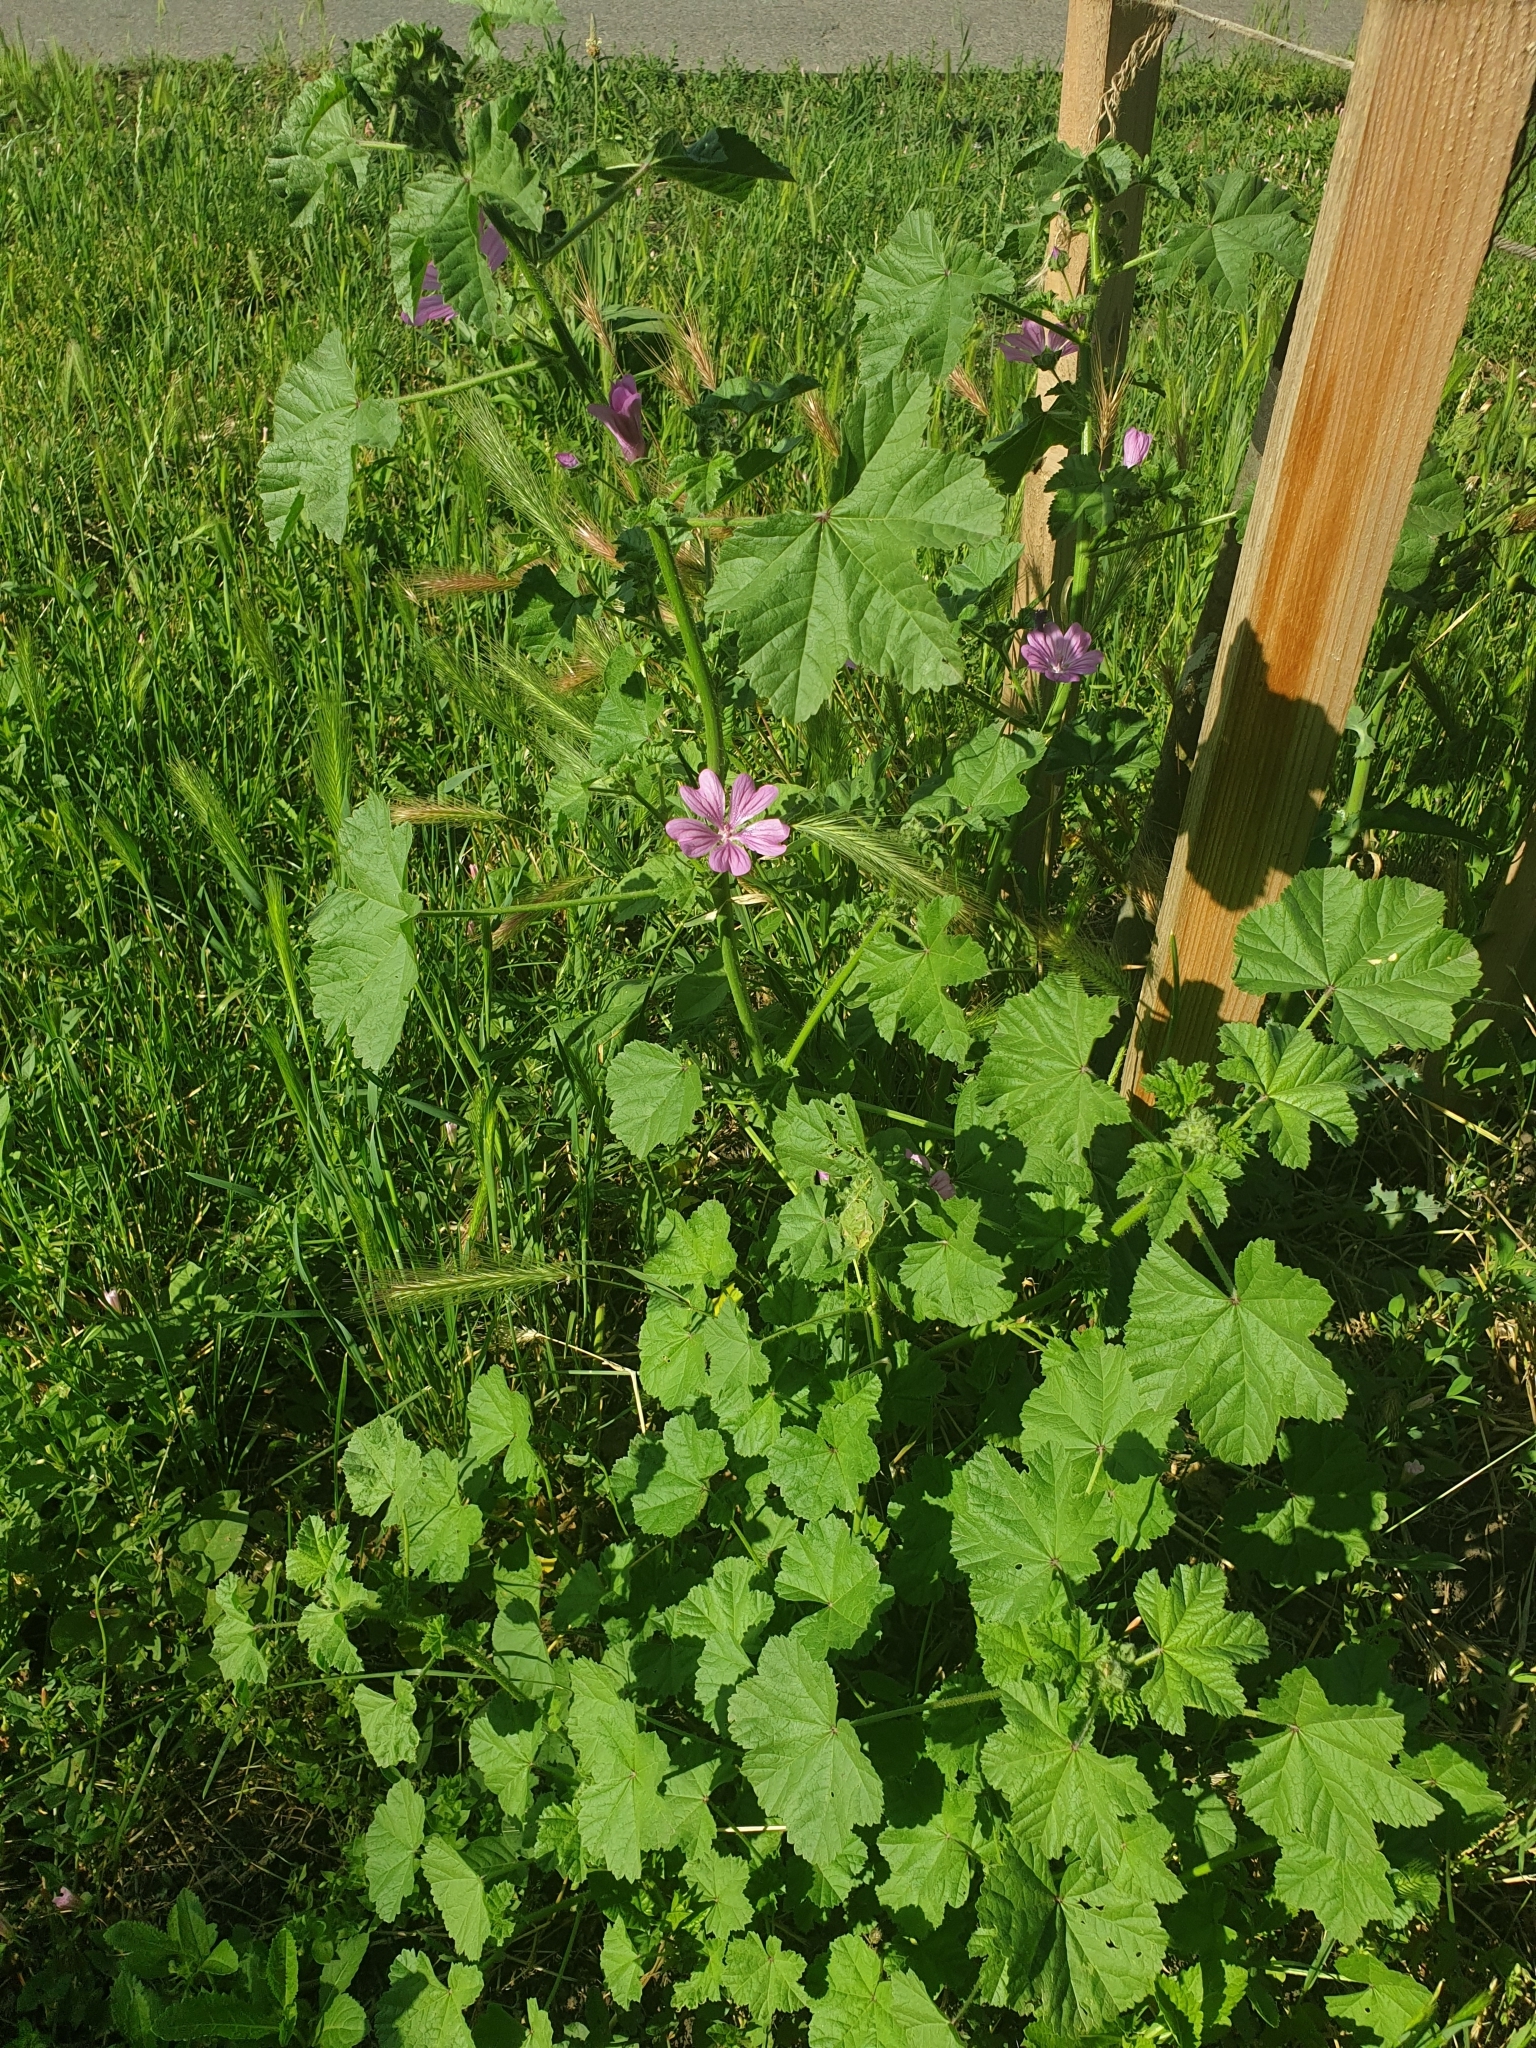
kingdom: Plantae
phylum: Tracheophyta
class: Magnoliopsida
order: Malvales
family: Malvaceae
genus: Malva
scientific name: Malva sylvestris
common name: Common mallow
